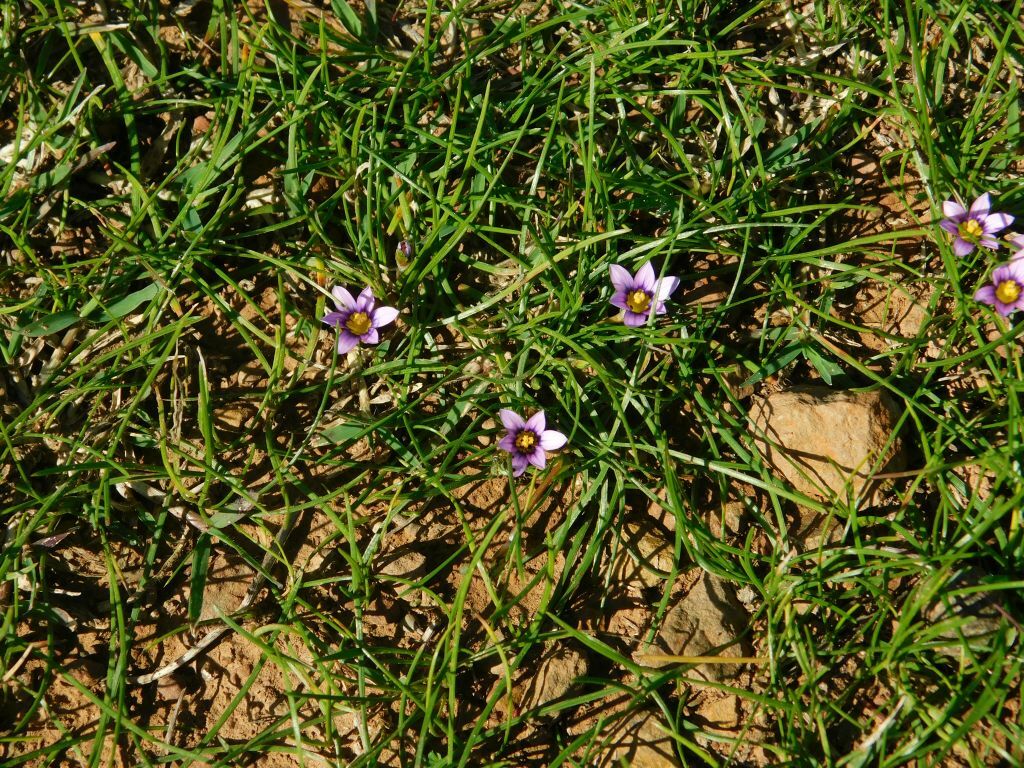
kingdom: Plantae
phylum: Tracheophyta
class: Liliopsida
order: Asparagales
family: Iridaceae
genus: Romulea
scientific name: Romulea minutiflora
